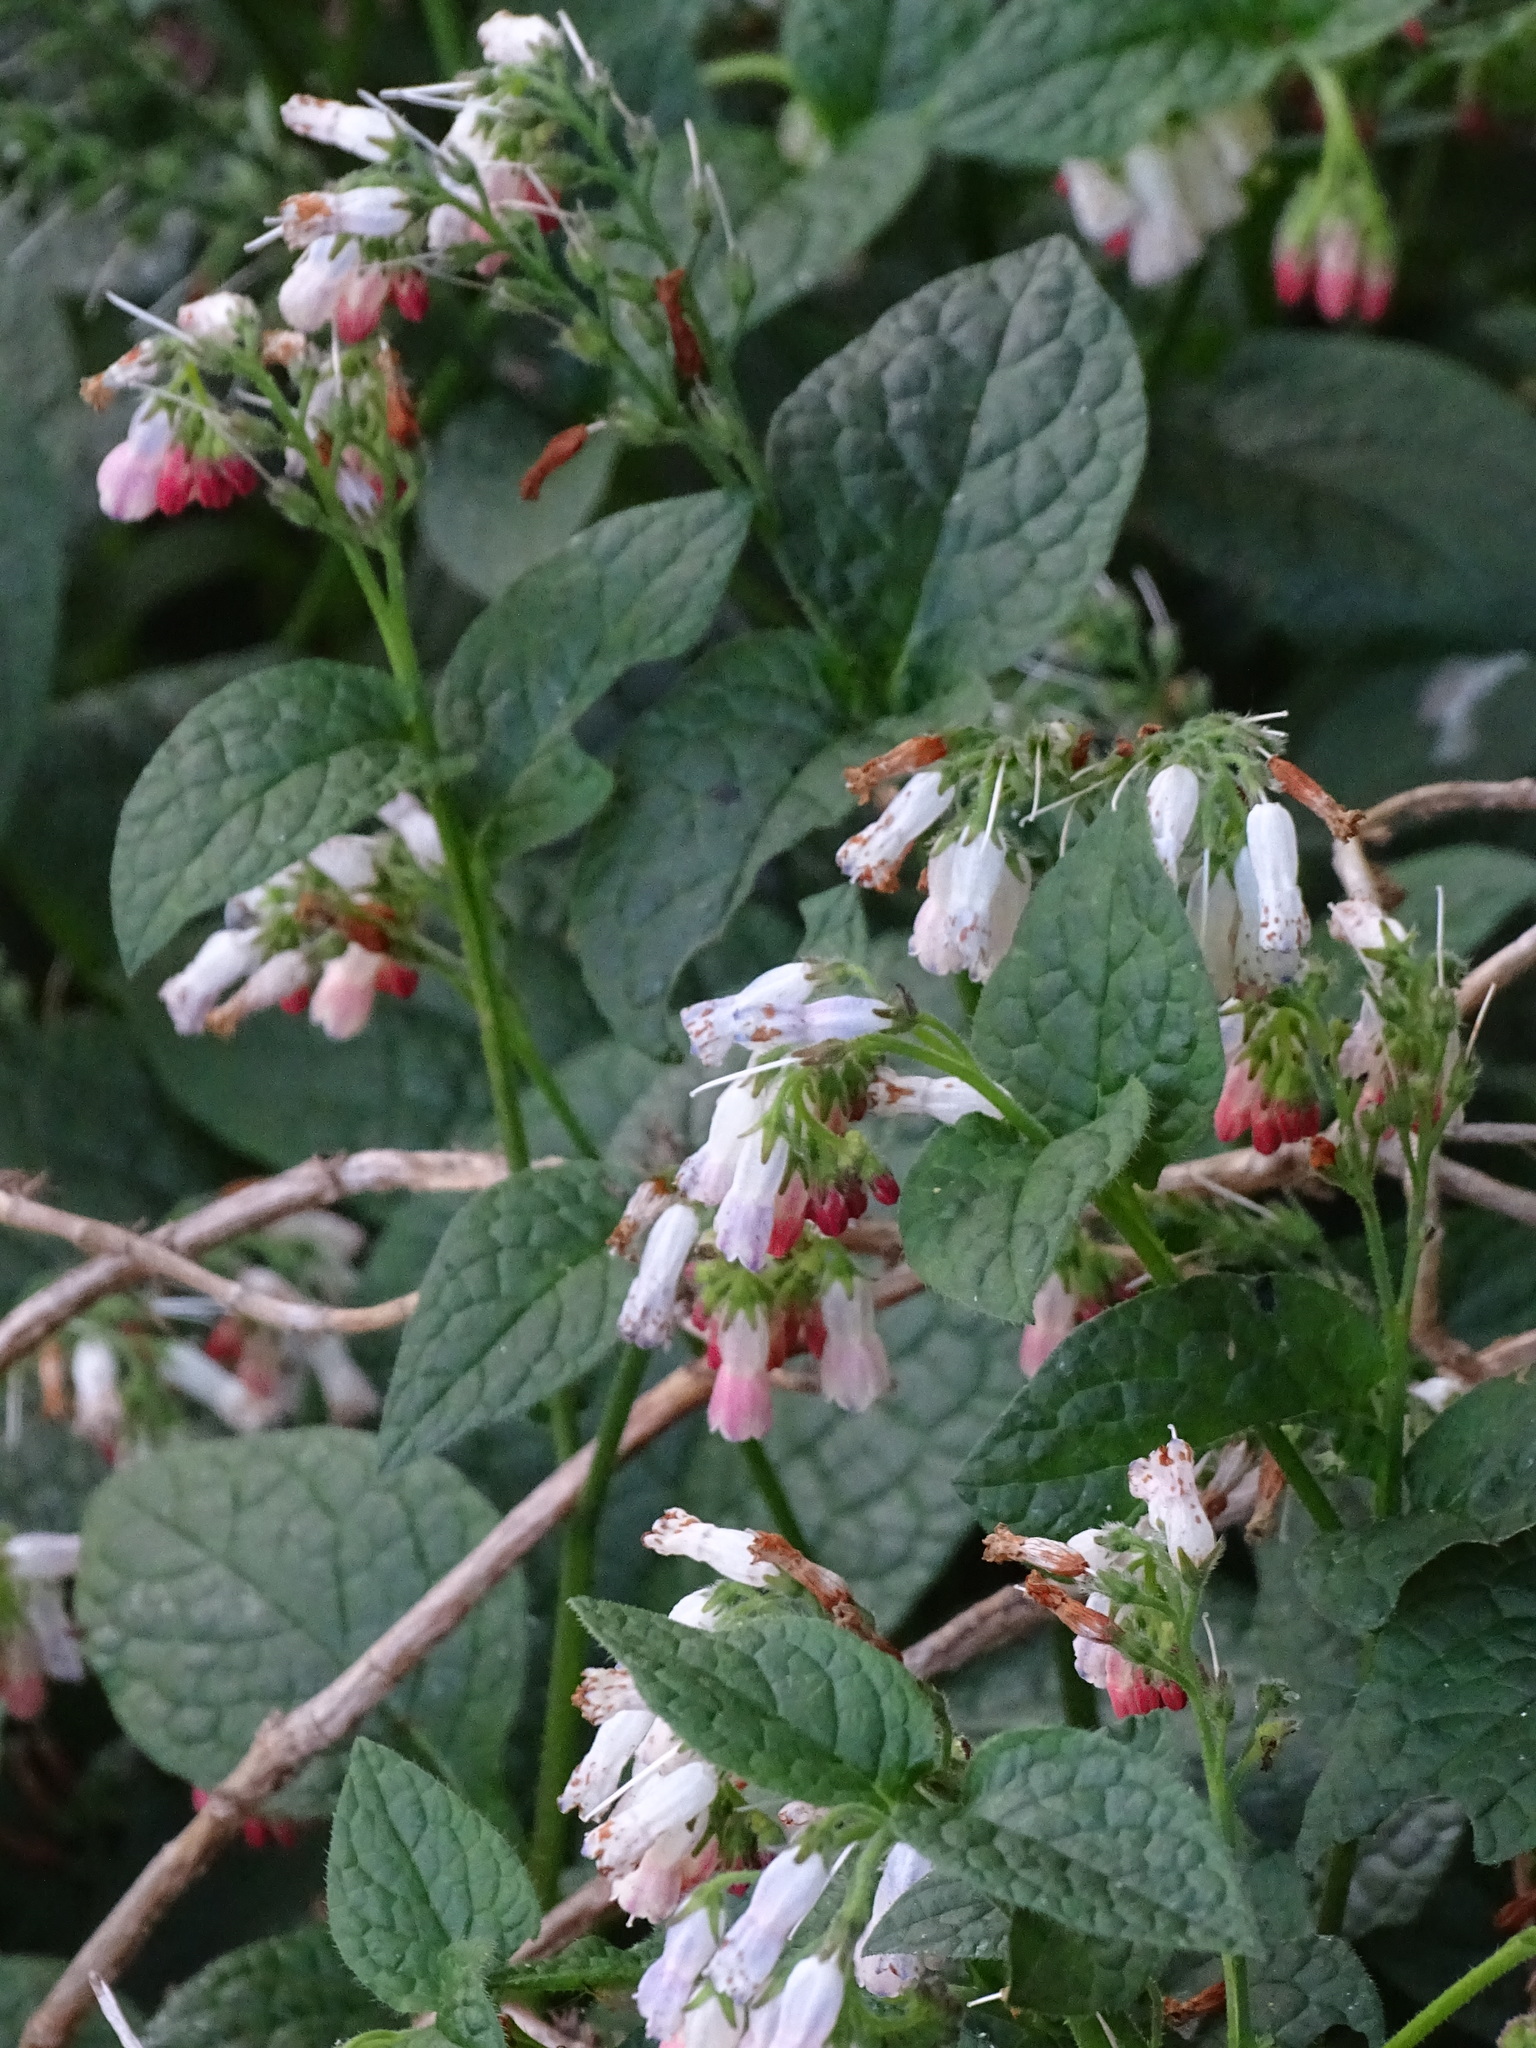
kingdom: Plantae
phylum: Tracheophyta
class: Magnoliopsida
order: Boraginales
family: Boraginaceae
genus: Symphytum
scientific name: Symphytum hidcotense
